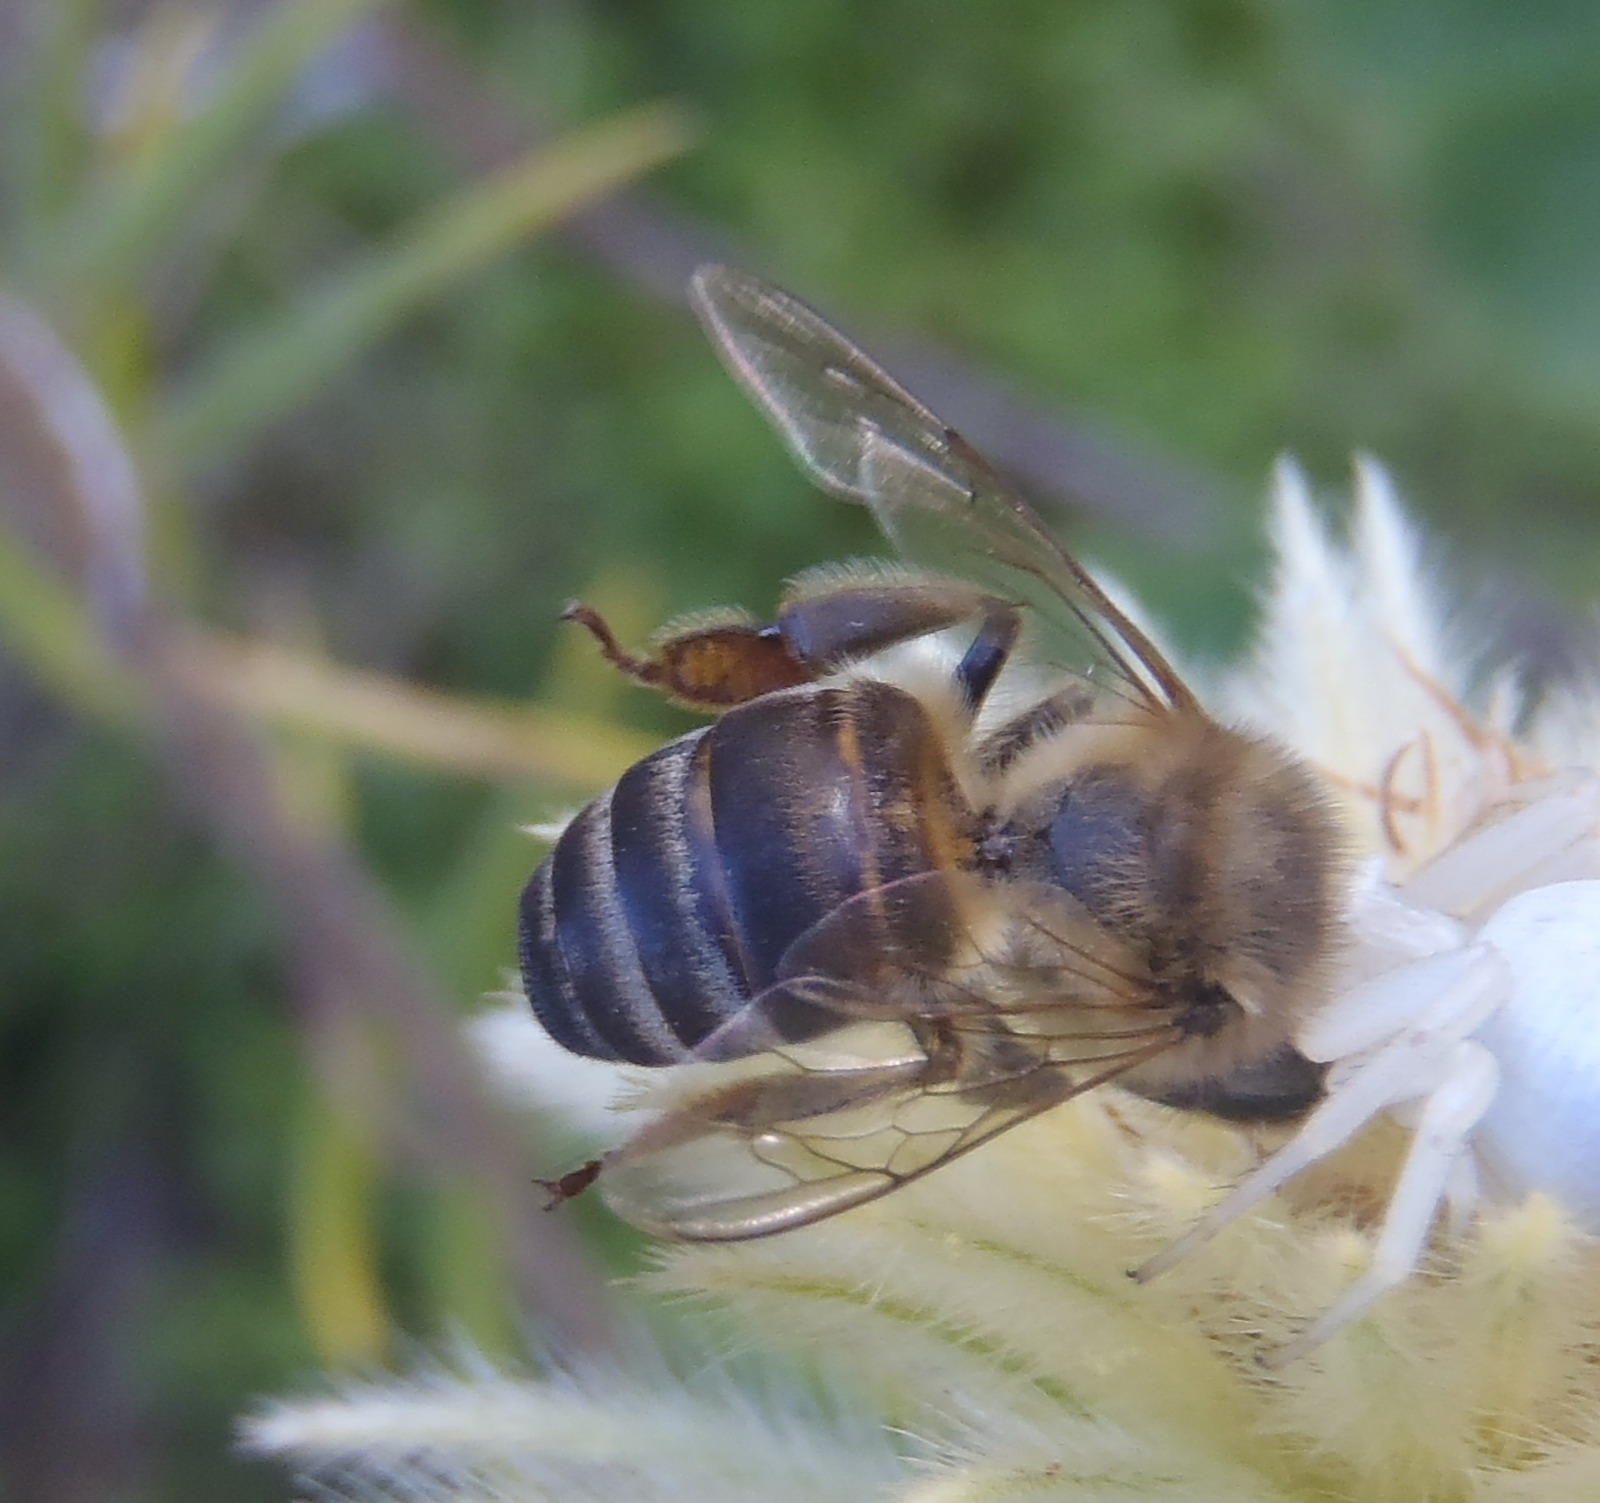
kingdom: Animalia
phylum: Arthropoda
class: Insecta
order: Hymenoptera
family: Apidae
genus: Apis
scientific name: Apis mellifera
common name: Honey bee
